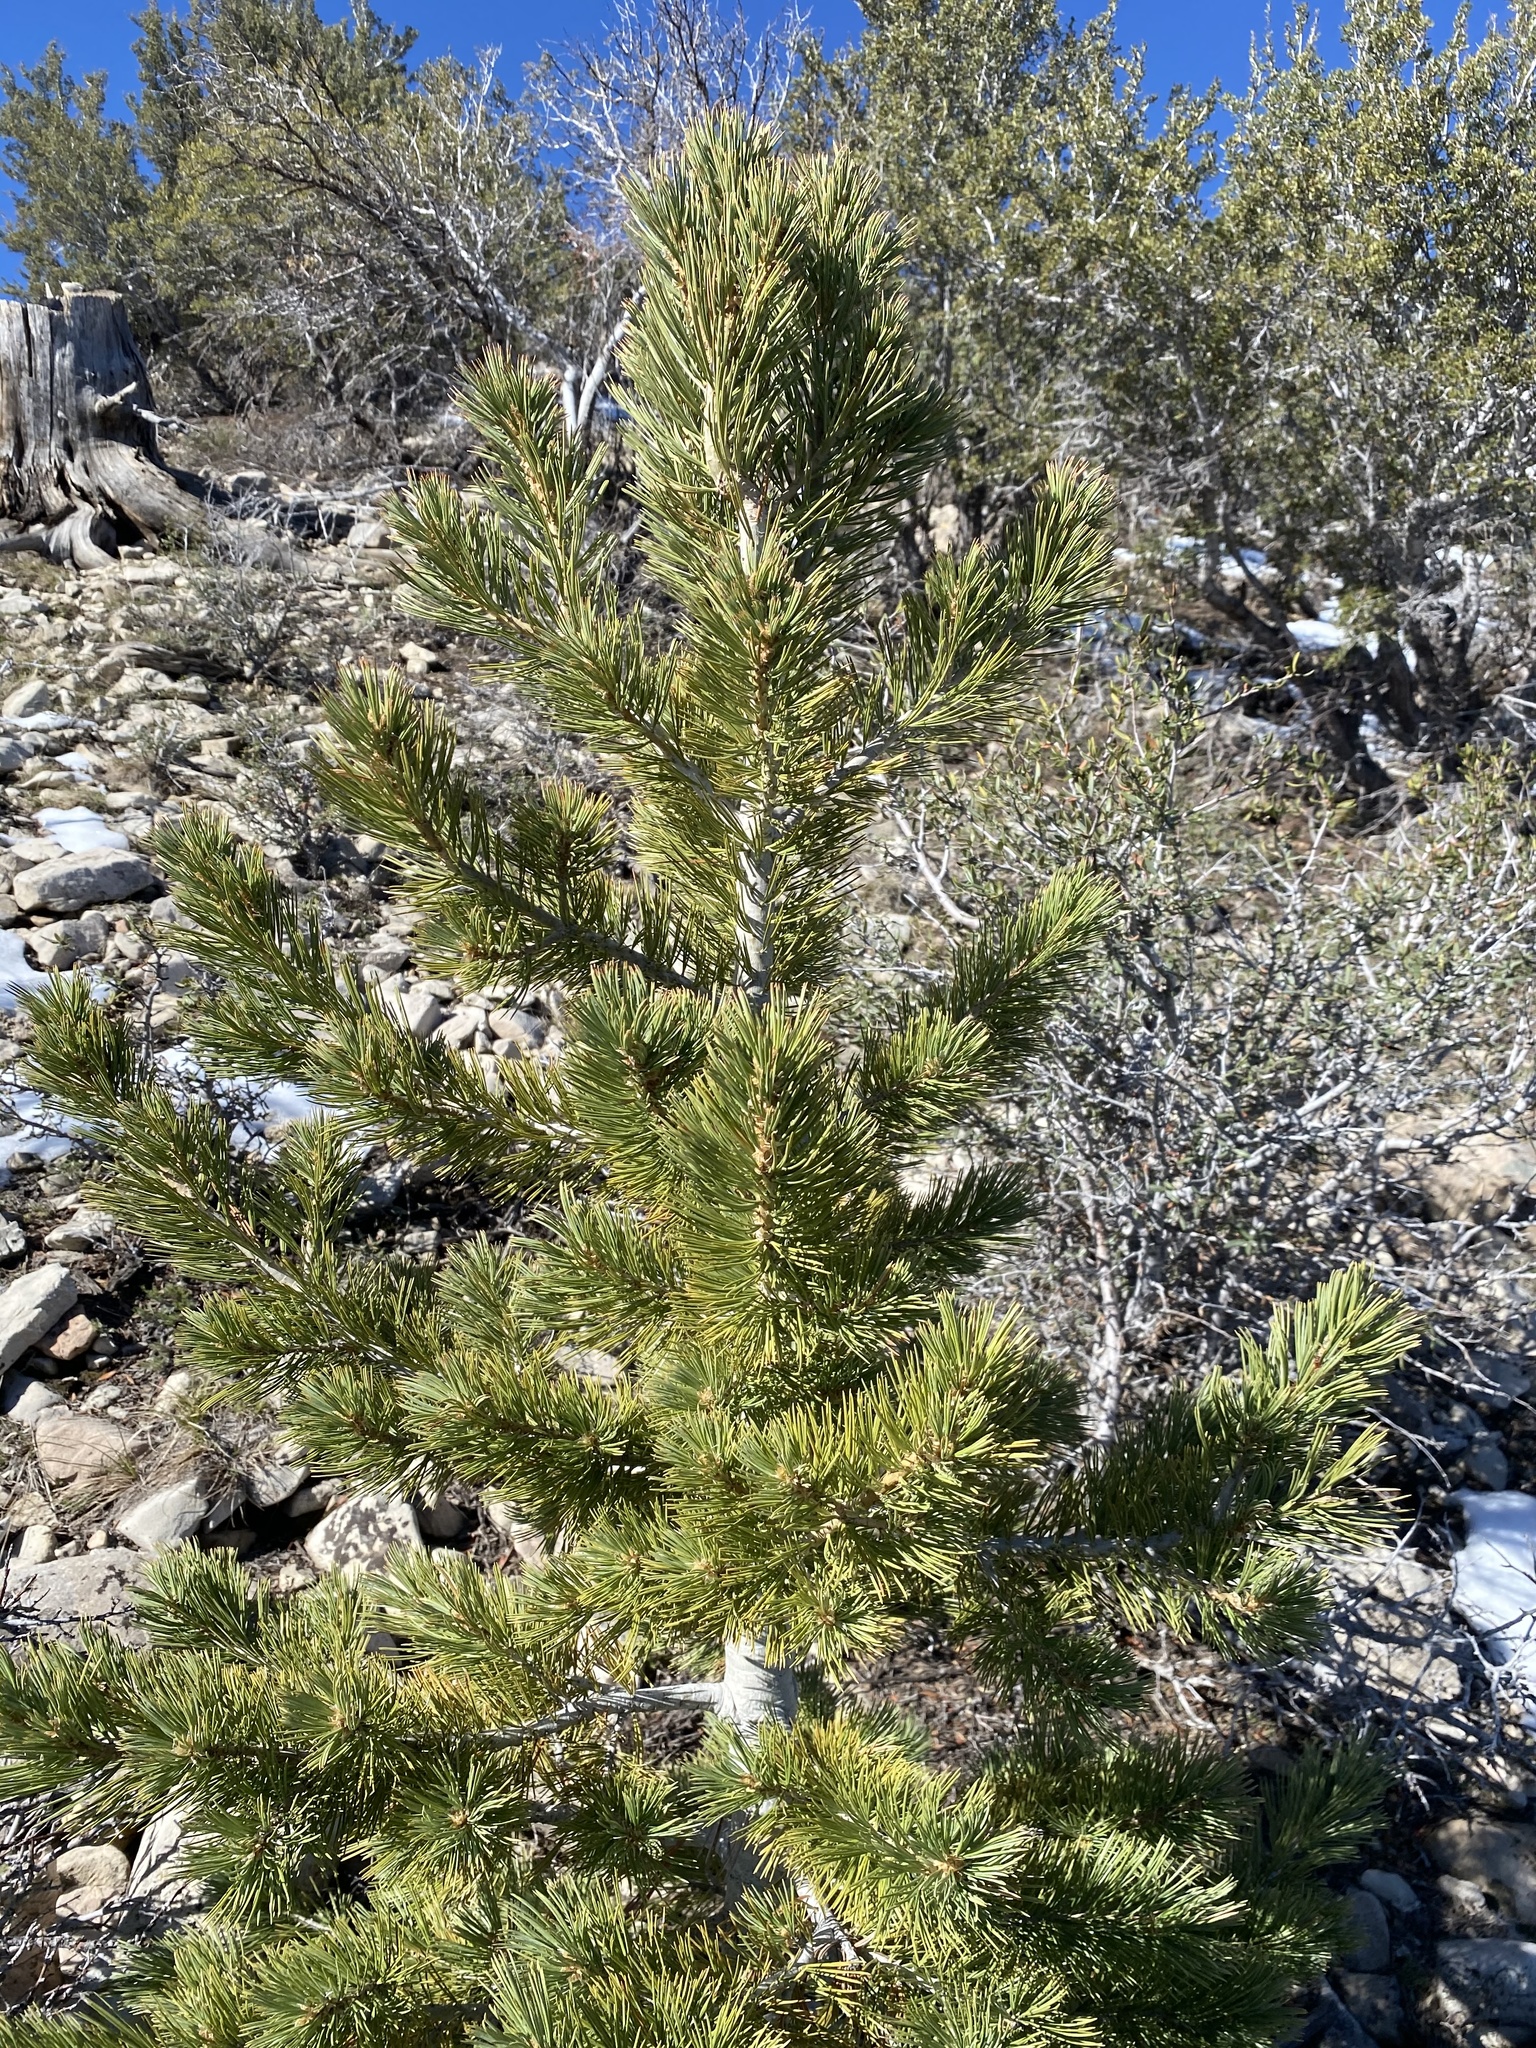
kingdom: Plantae
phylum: Tracheophyta
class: Pinopsida
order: Pinales
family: Pinaceae
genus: Pinus
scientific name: Pinus flexilis
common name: Limber pine
